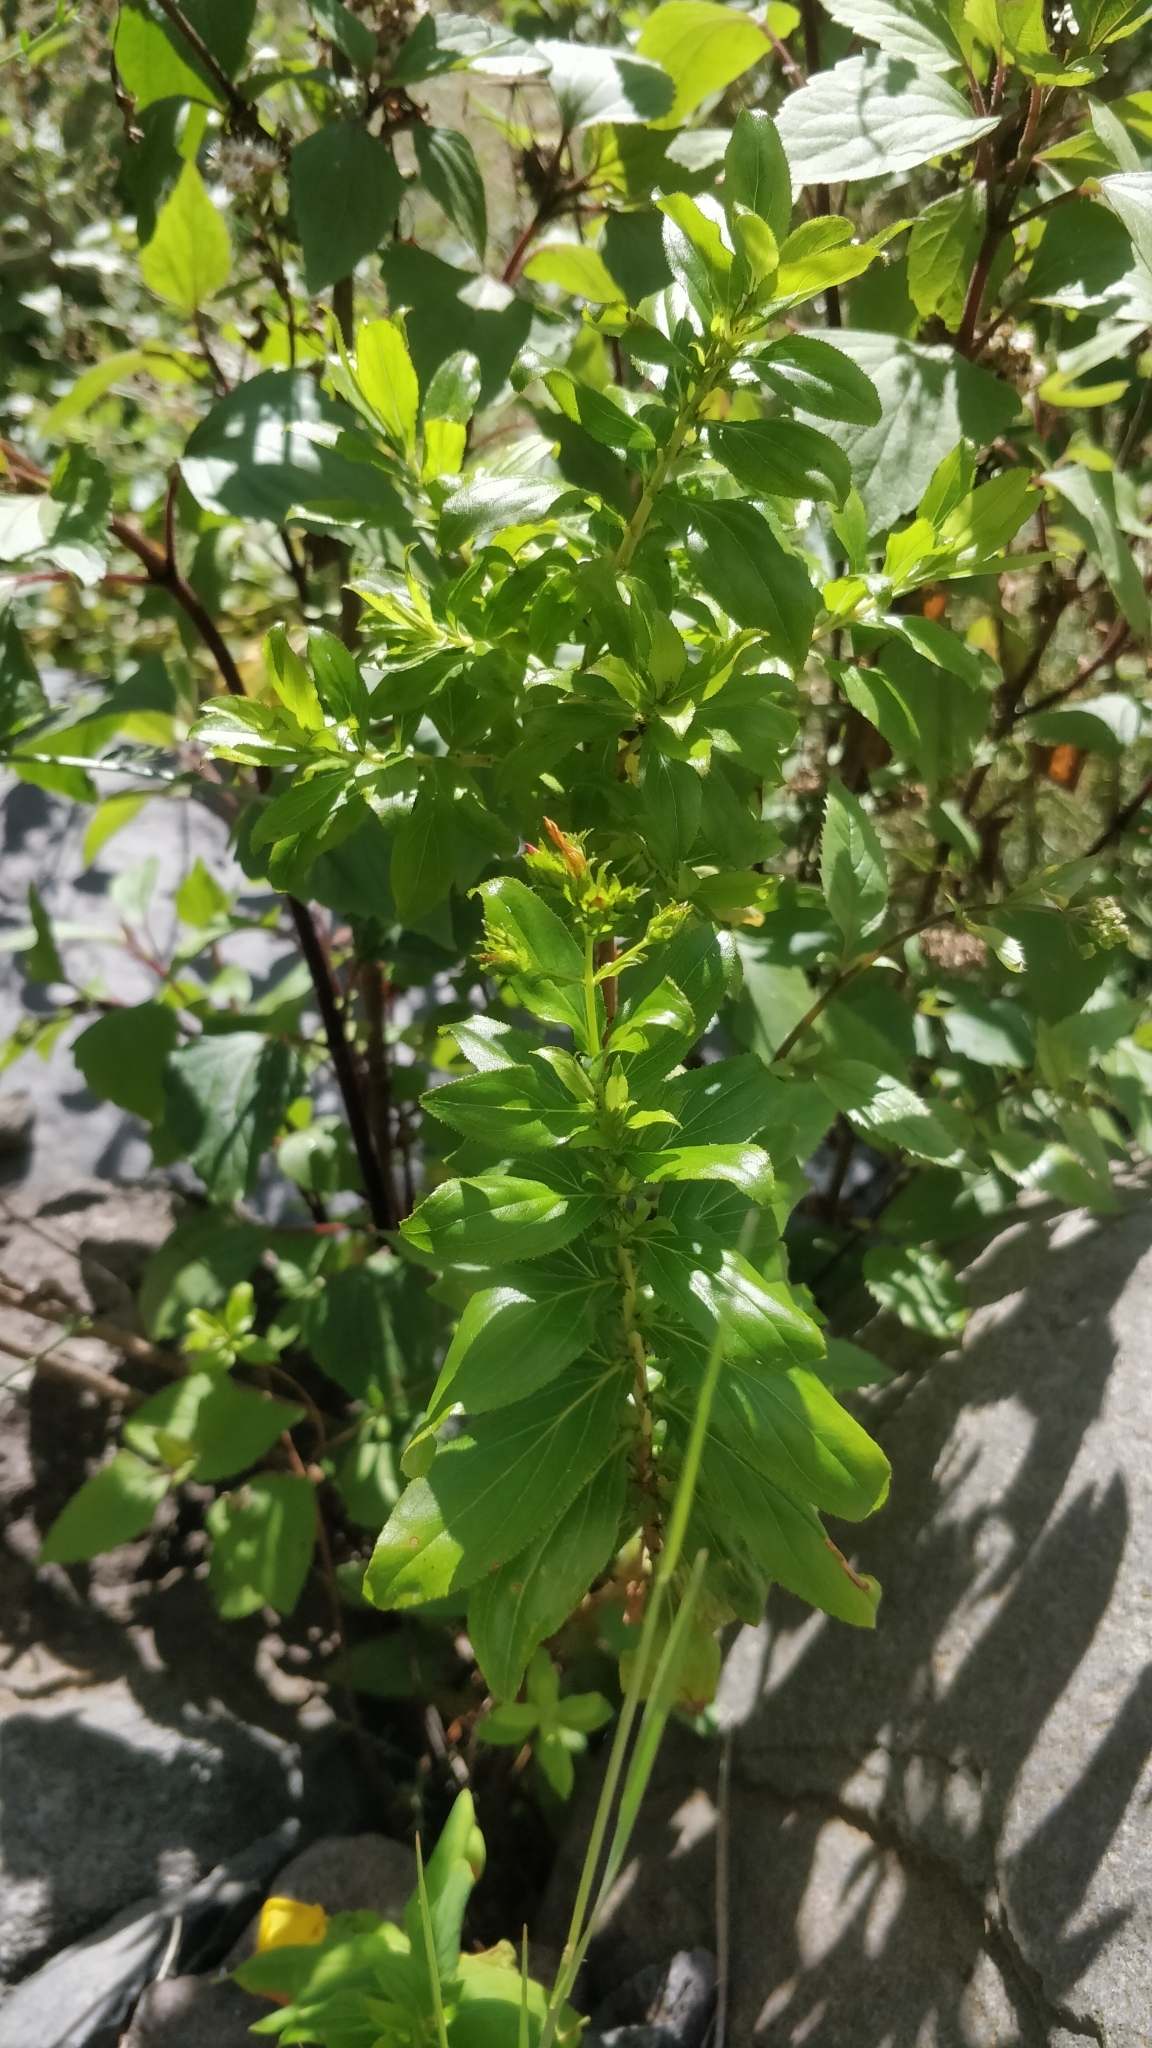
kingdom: Plantae
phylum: Tracheophyta
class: Magnoliopsida
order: Malpighiales
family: Hypericaceae
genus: Hypericum
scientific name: Hypericum glandulosum
